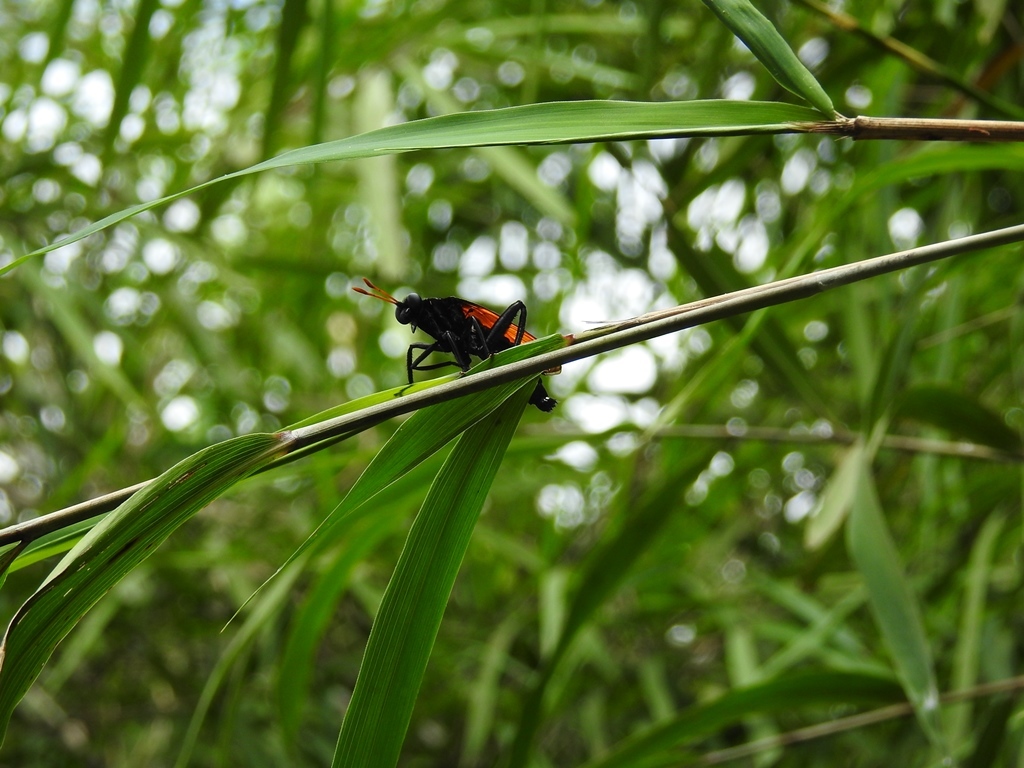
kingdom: Animalia
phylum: Arthropoda
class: Insecta
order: Diptera
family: Mydidae
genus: Mydas
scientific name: Mydas rubidapex
